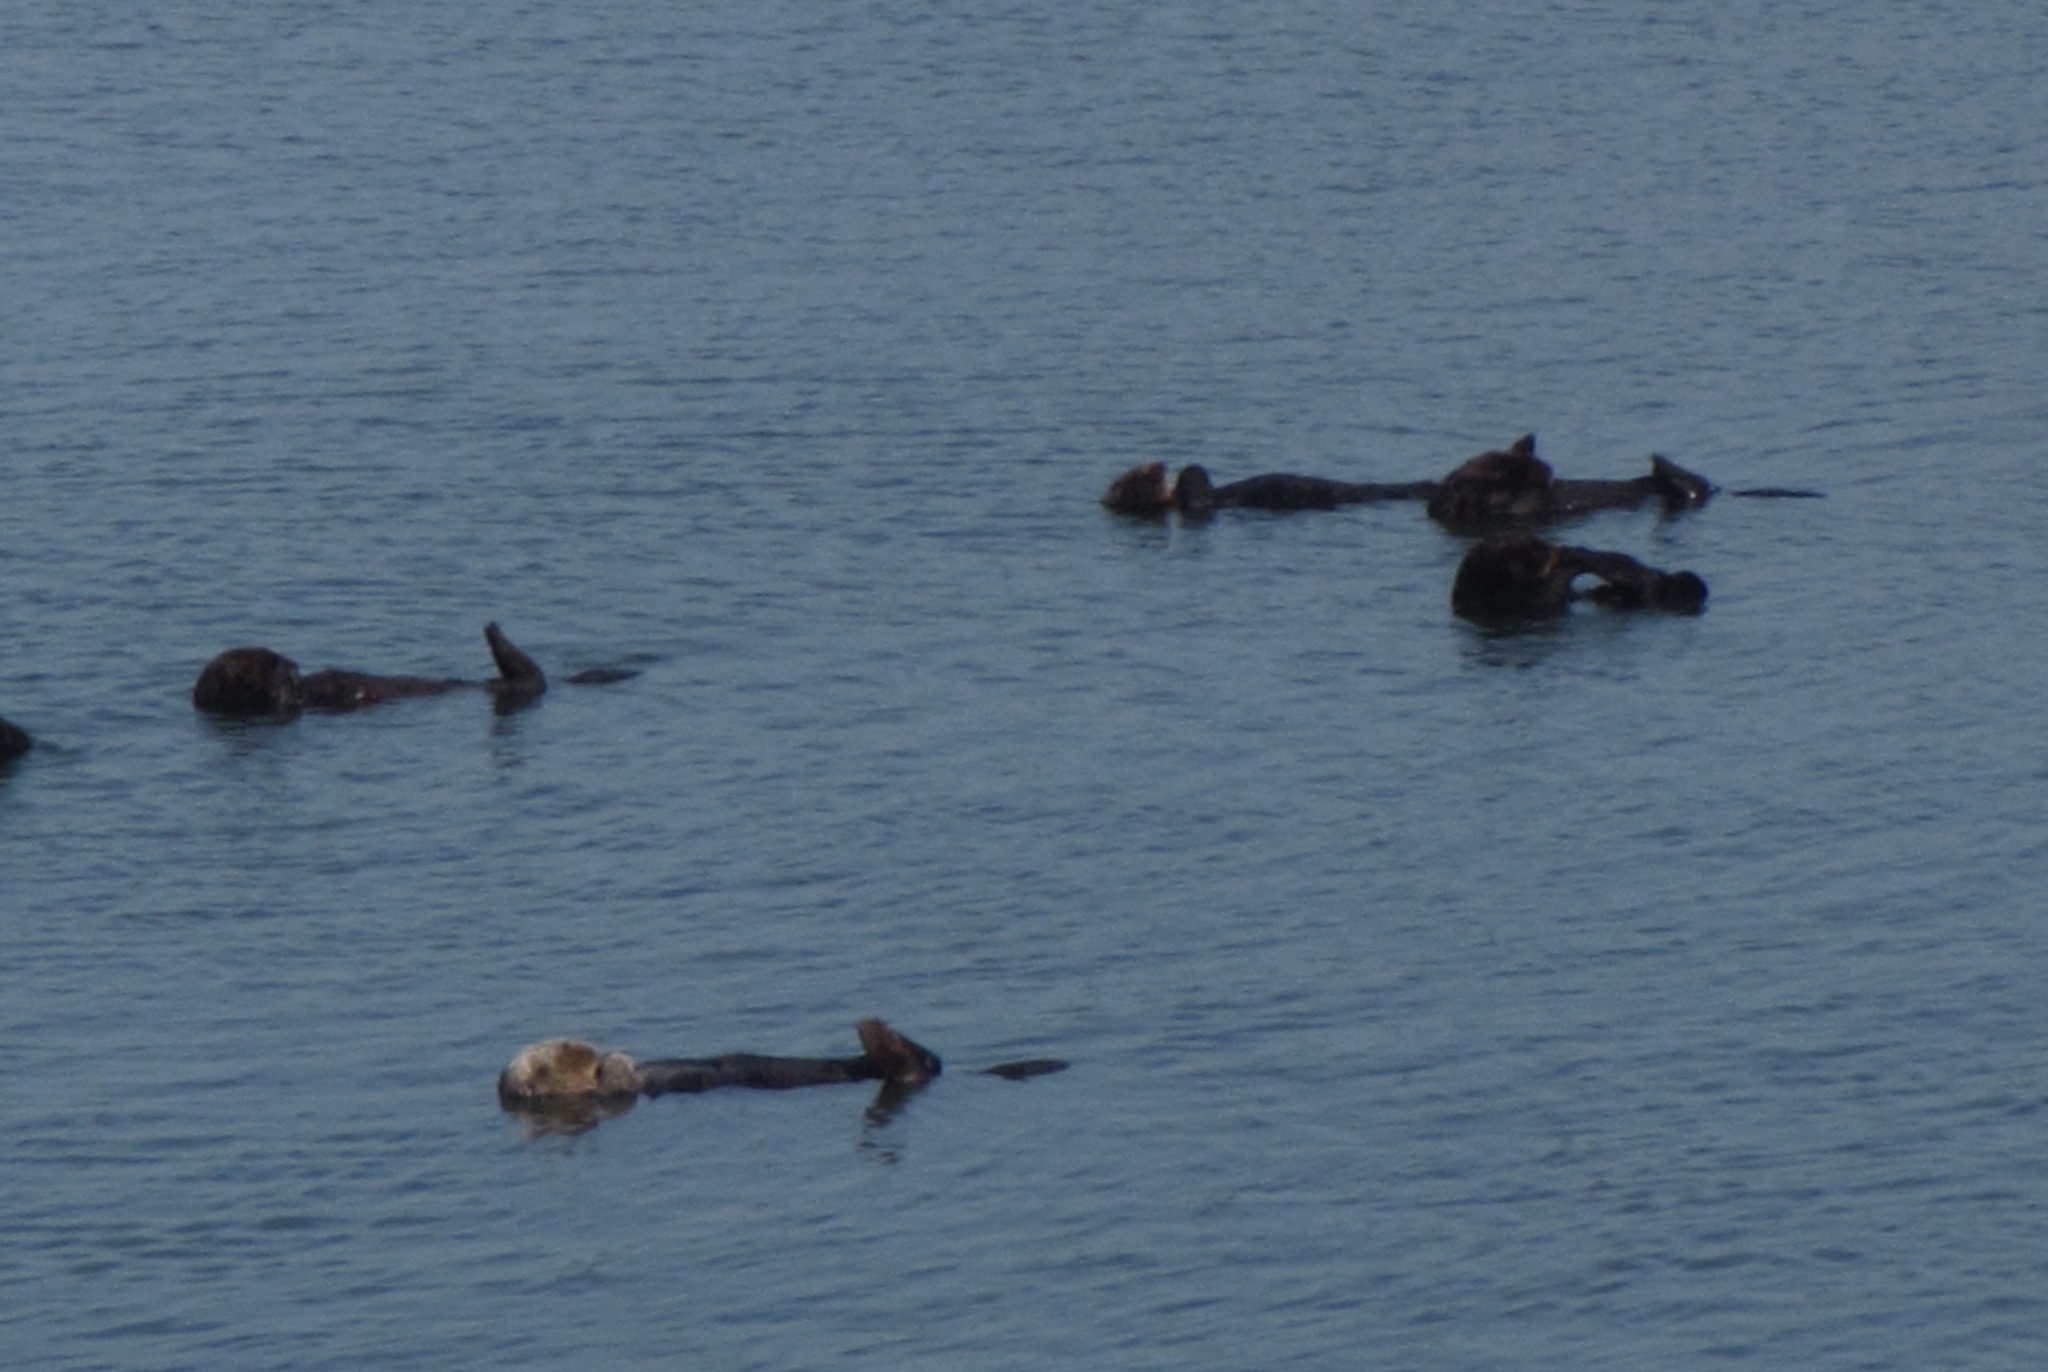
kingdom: Animalia
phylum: Chordata
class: Mammalia
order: Carnivora
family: Mustelidae
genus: Enhydra
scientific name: Enhydra lutris
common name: Sea otter
